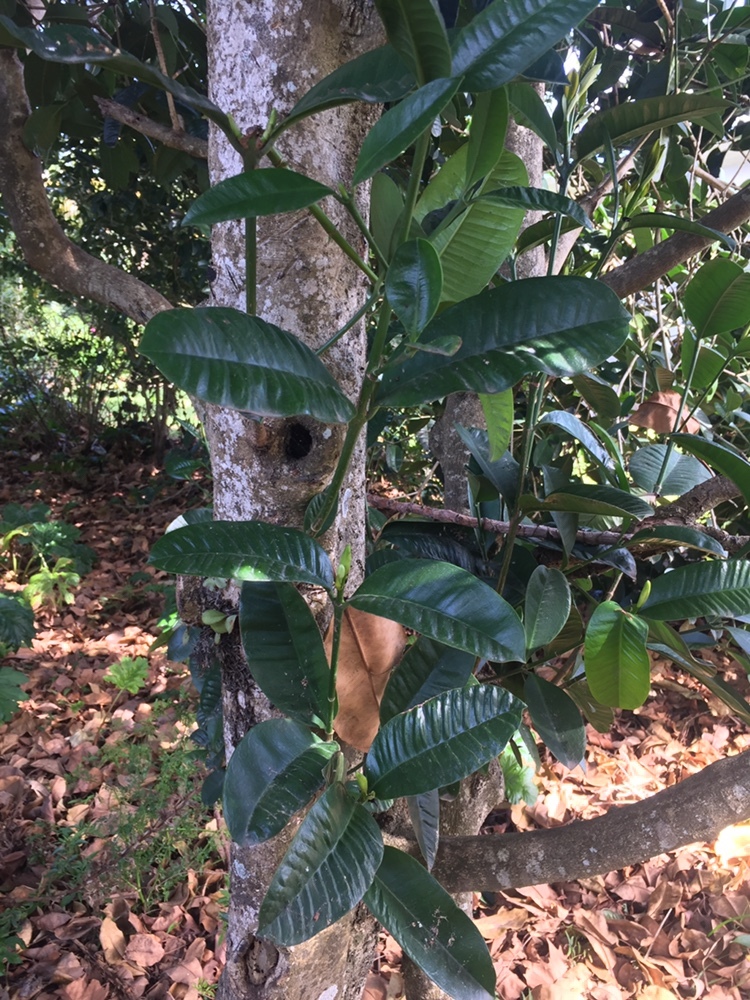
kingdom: Plantae
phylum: Tracheophyta
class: Magnoliopsida
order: Malpighiales
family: Euphorbiaceae
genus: Baloghia
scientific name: Baloghia inophylla
